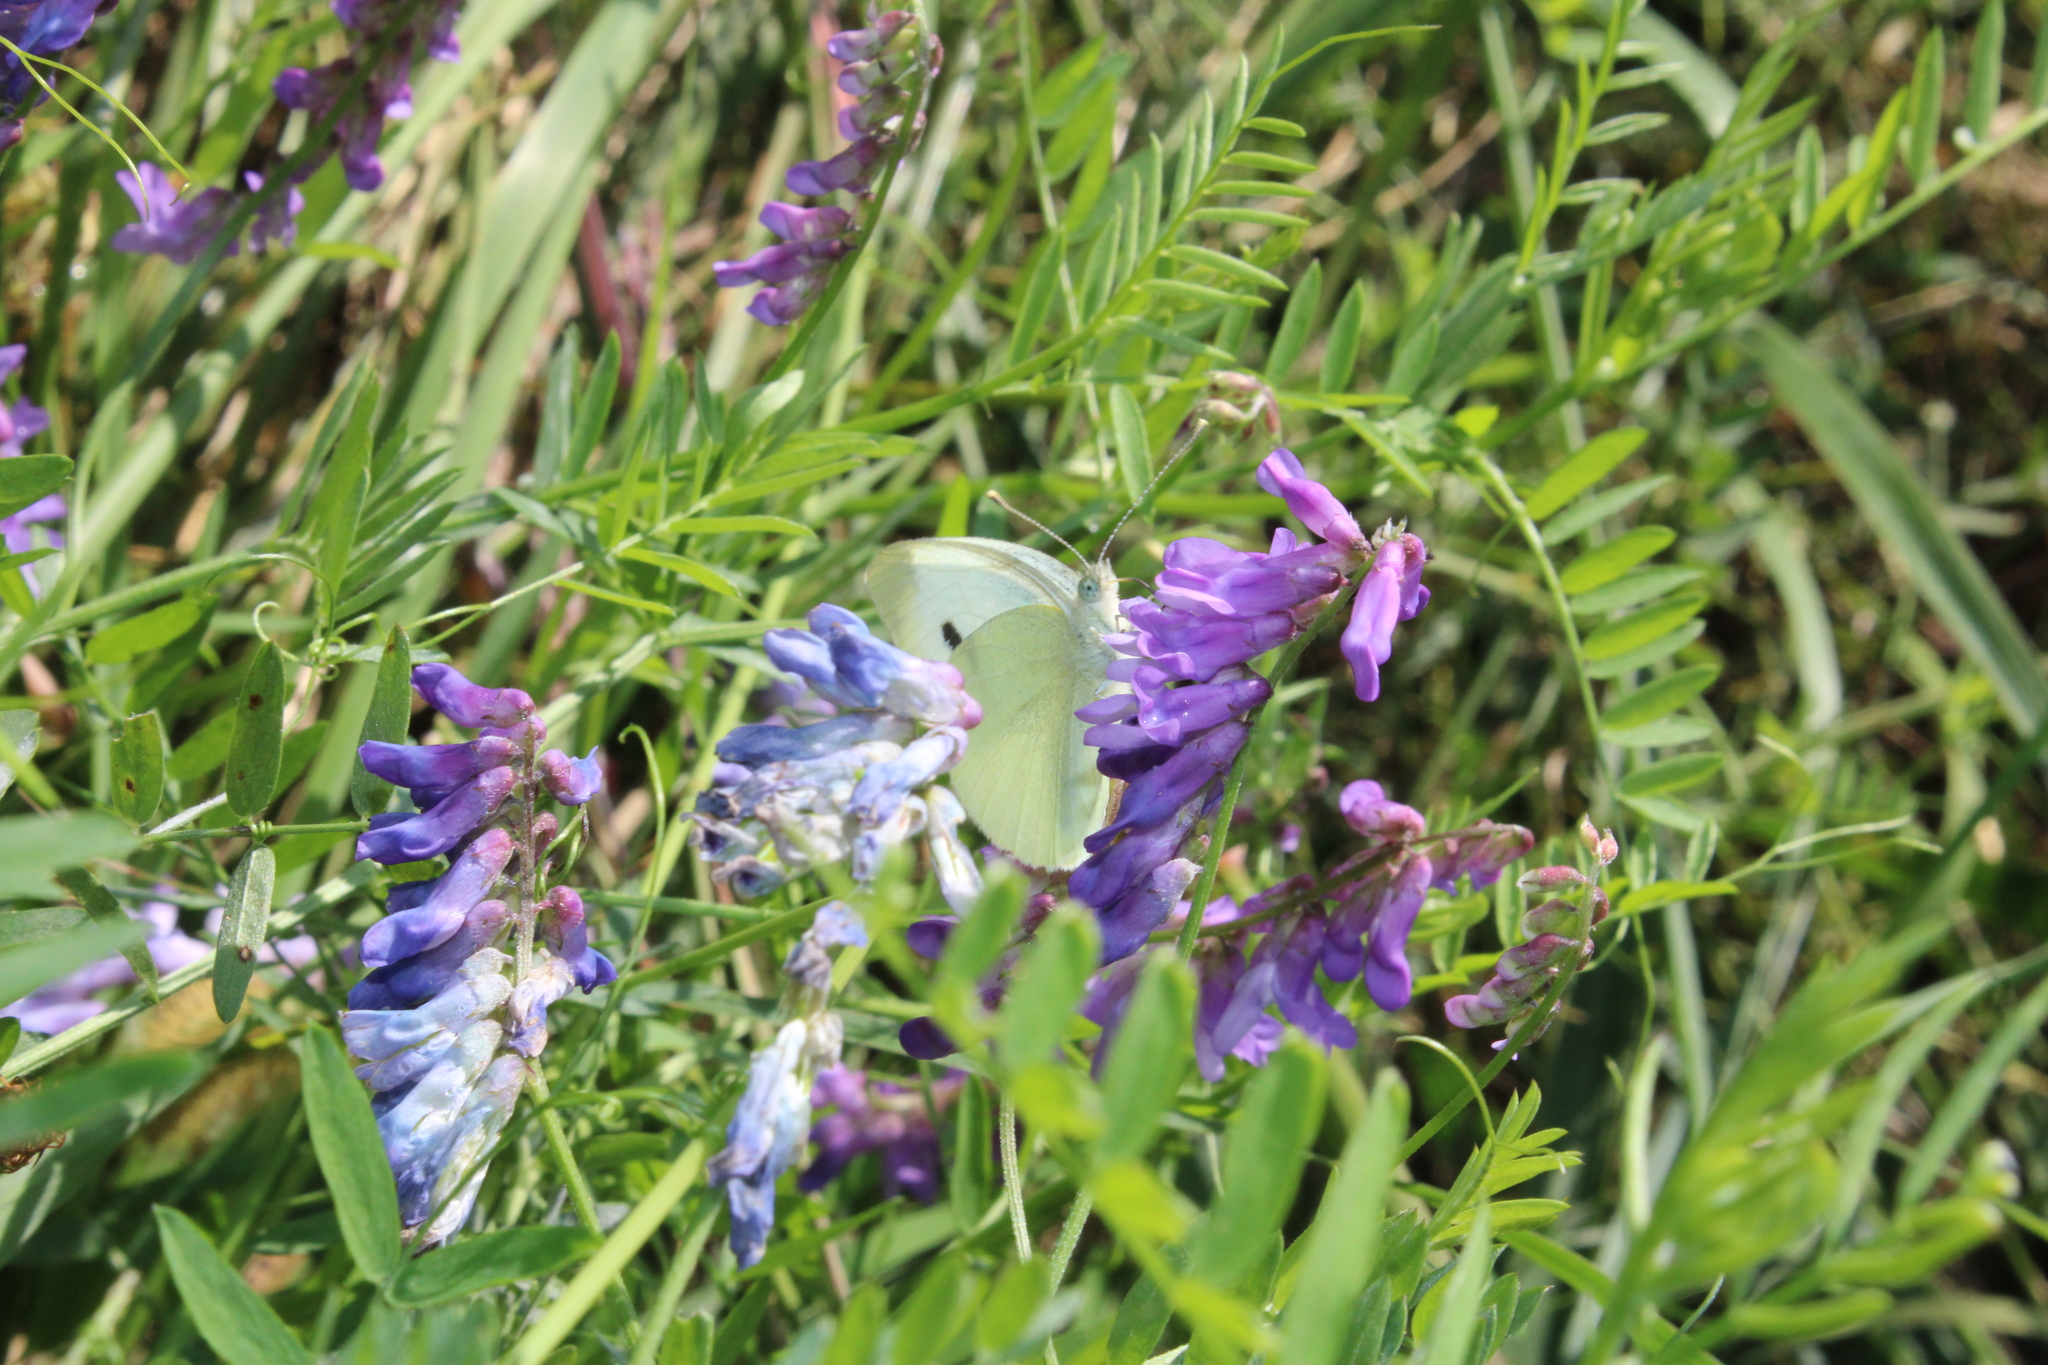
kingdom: Animalia
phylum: Arthropoda
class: Insecta
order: Lepidoptera
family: Pieridae
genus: Pieris
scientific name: Pieris rapae
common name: Small white
